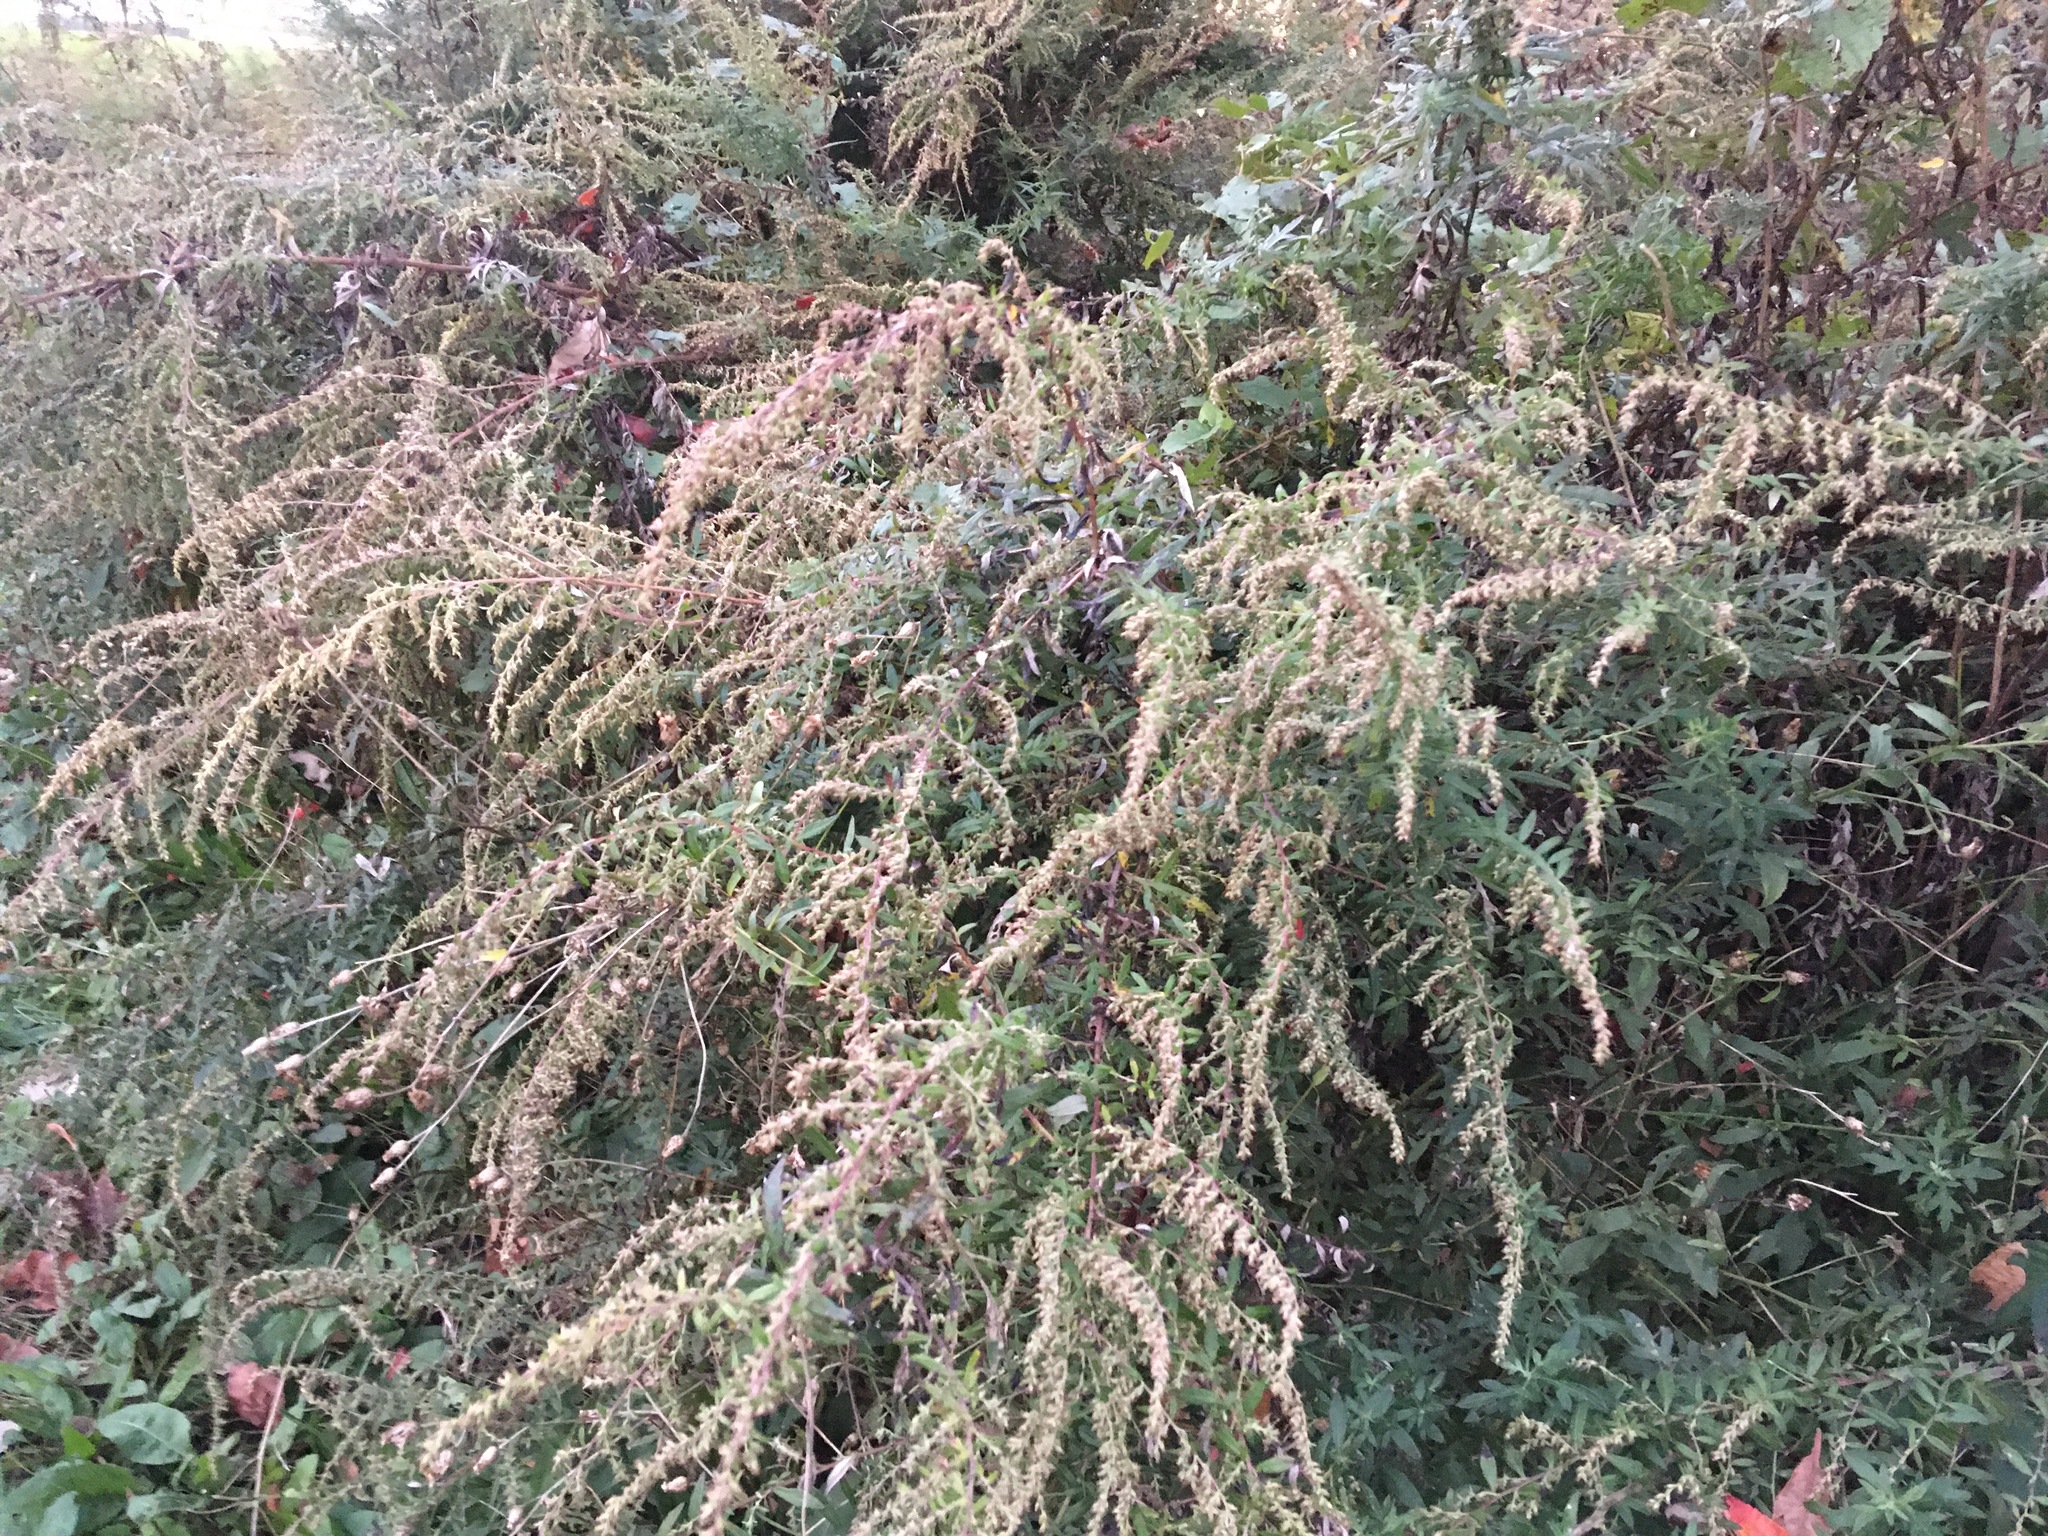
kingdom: Plantae
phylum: Tracheophyta
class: Magnoliopsida
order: Asterales
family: Asteraceae
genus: Artemisia
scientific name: Artemisia vulgaris
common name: Mugwort
